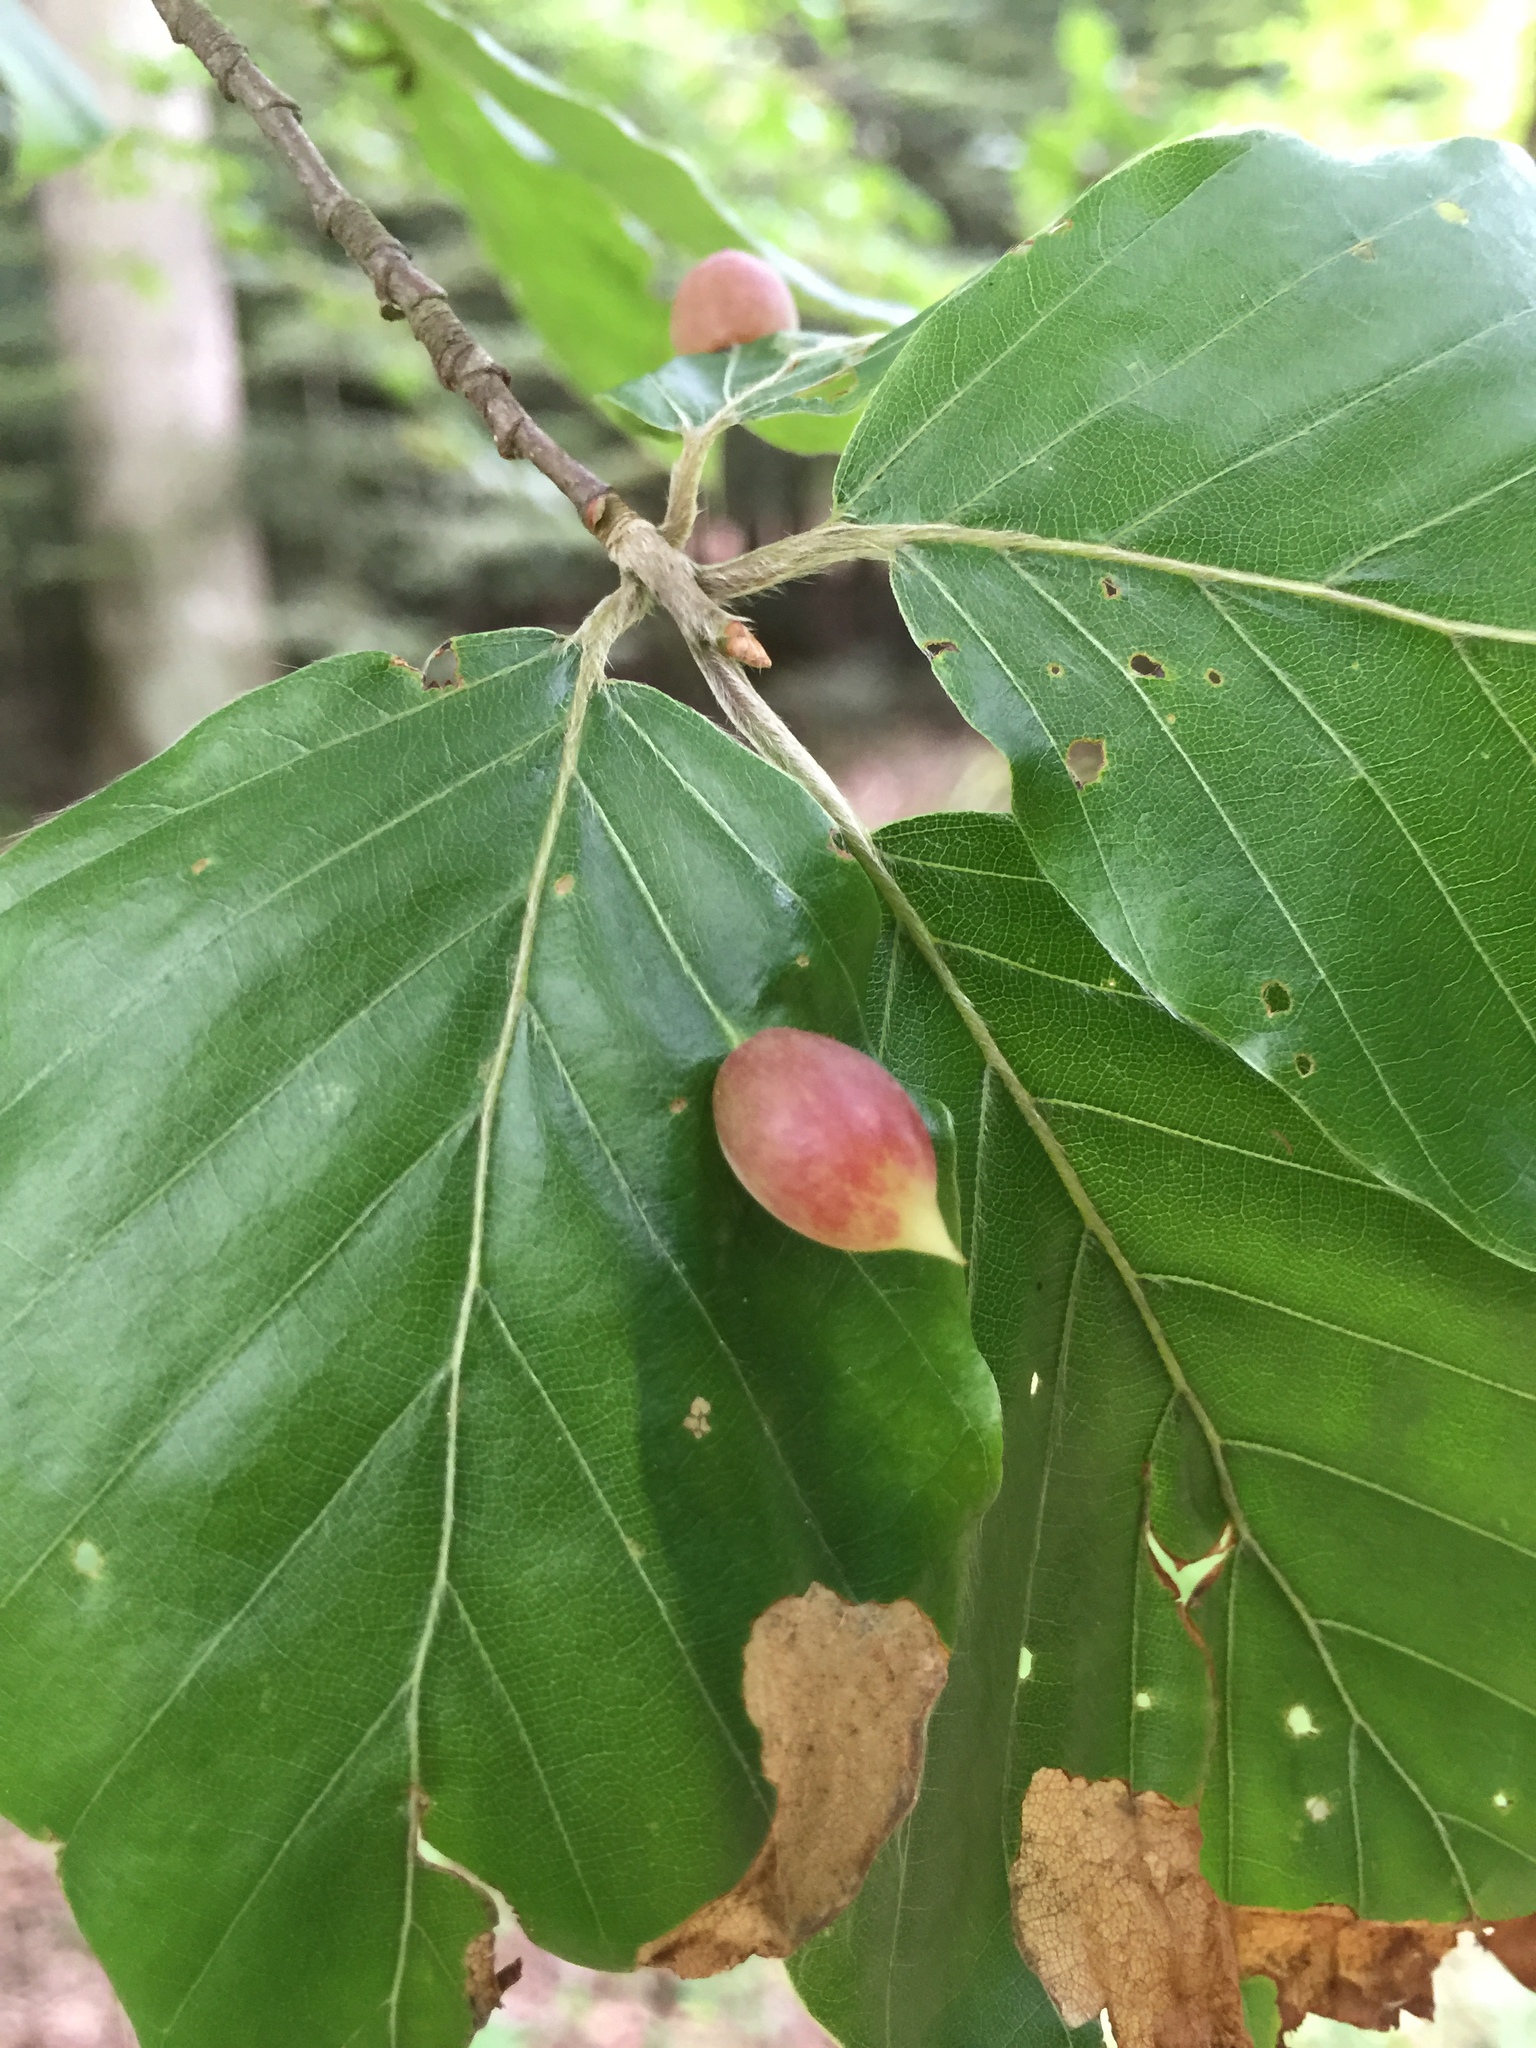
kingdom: Animalia
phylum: Arthropoda
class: Insecta
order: Diptera
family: Cecidomyiidae
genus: Mikiola
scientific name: Mikiola fagi
